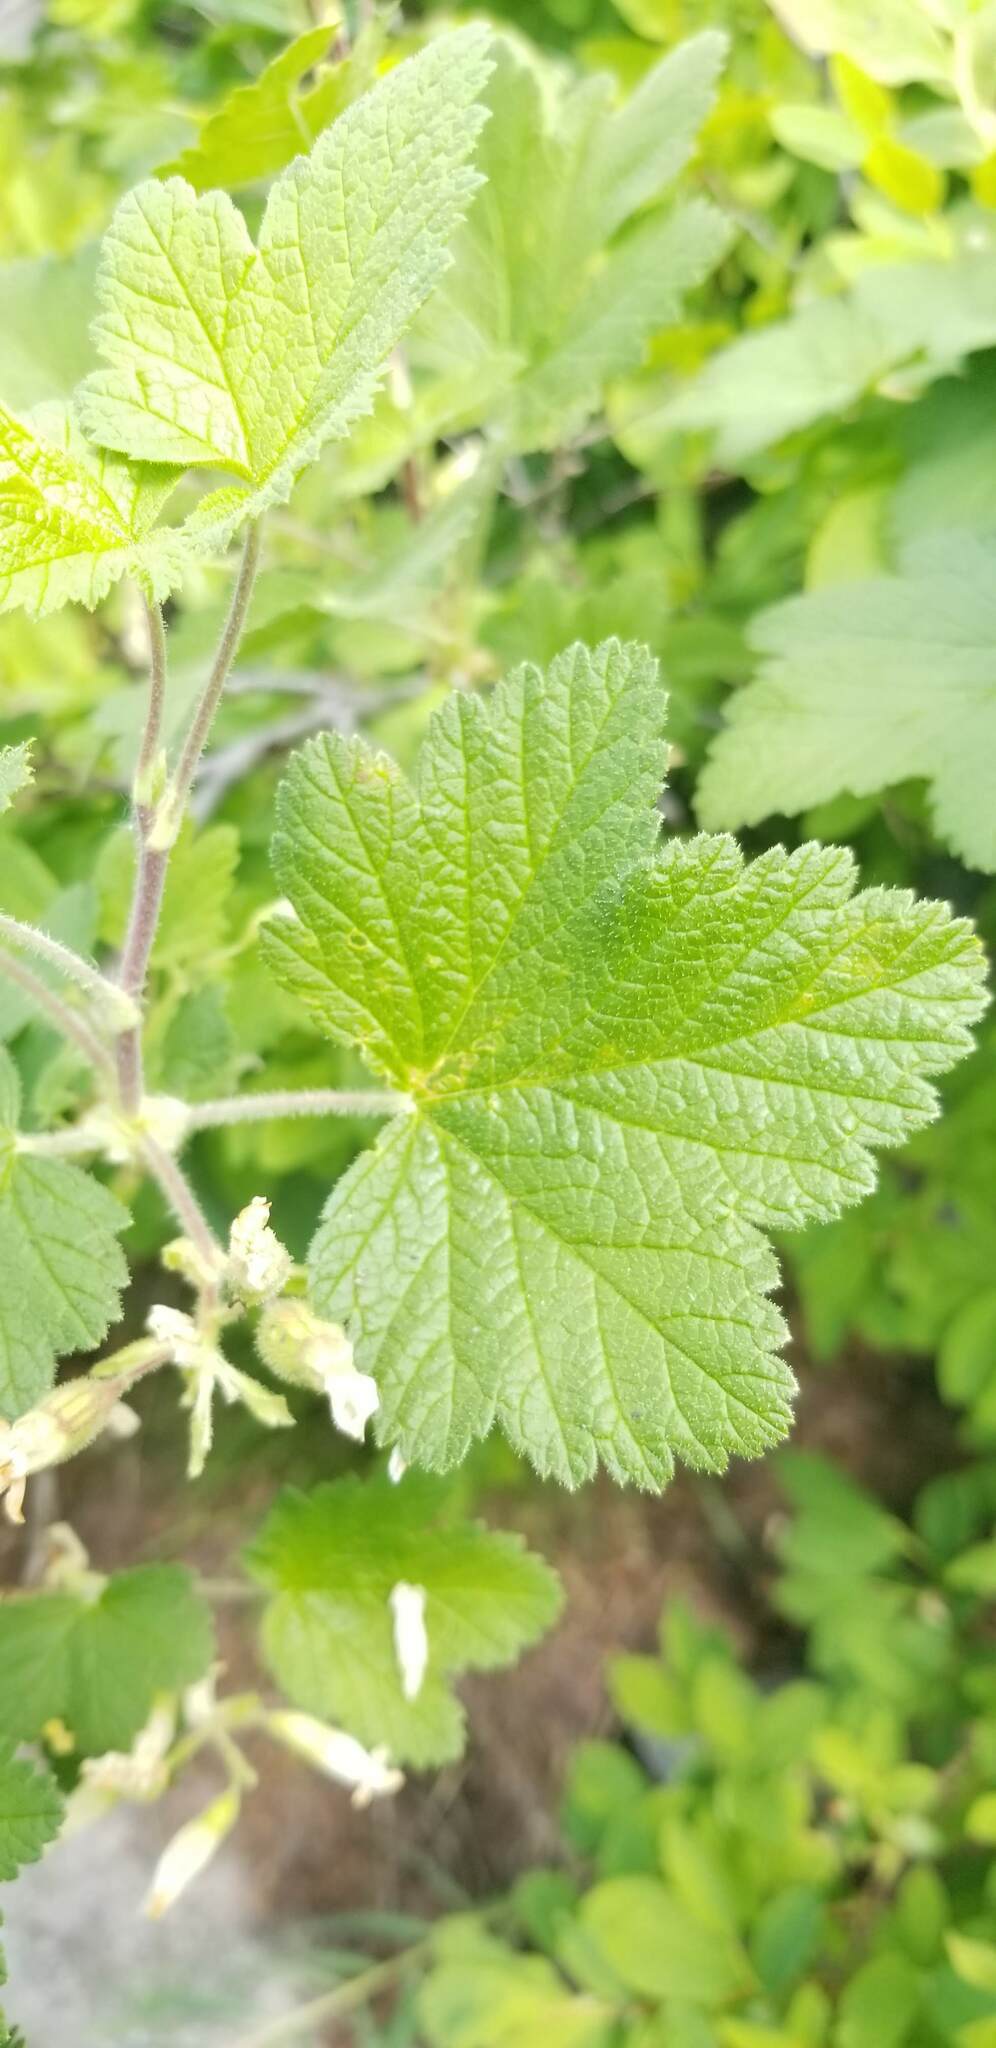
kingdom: Plantae
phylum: Tracheophyta
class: Magnoliopsida
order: Saxifragales
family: Grossulariaceae
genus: Ribes
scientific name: Ribes viscosissimum
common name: Sticky currant
